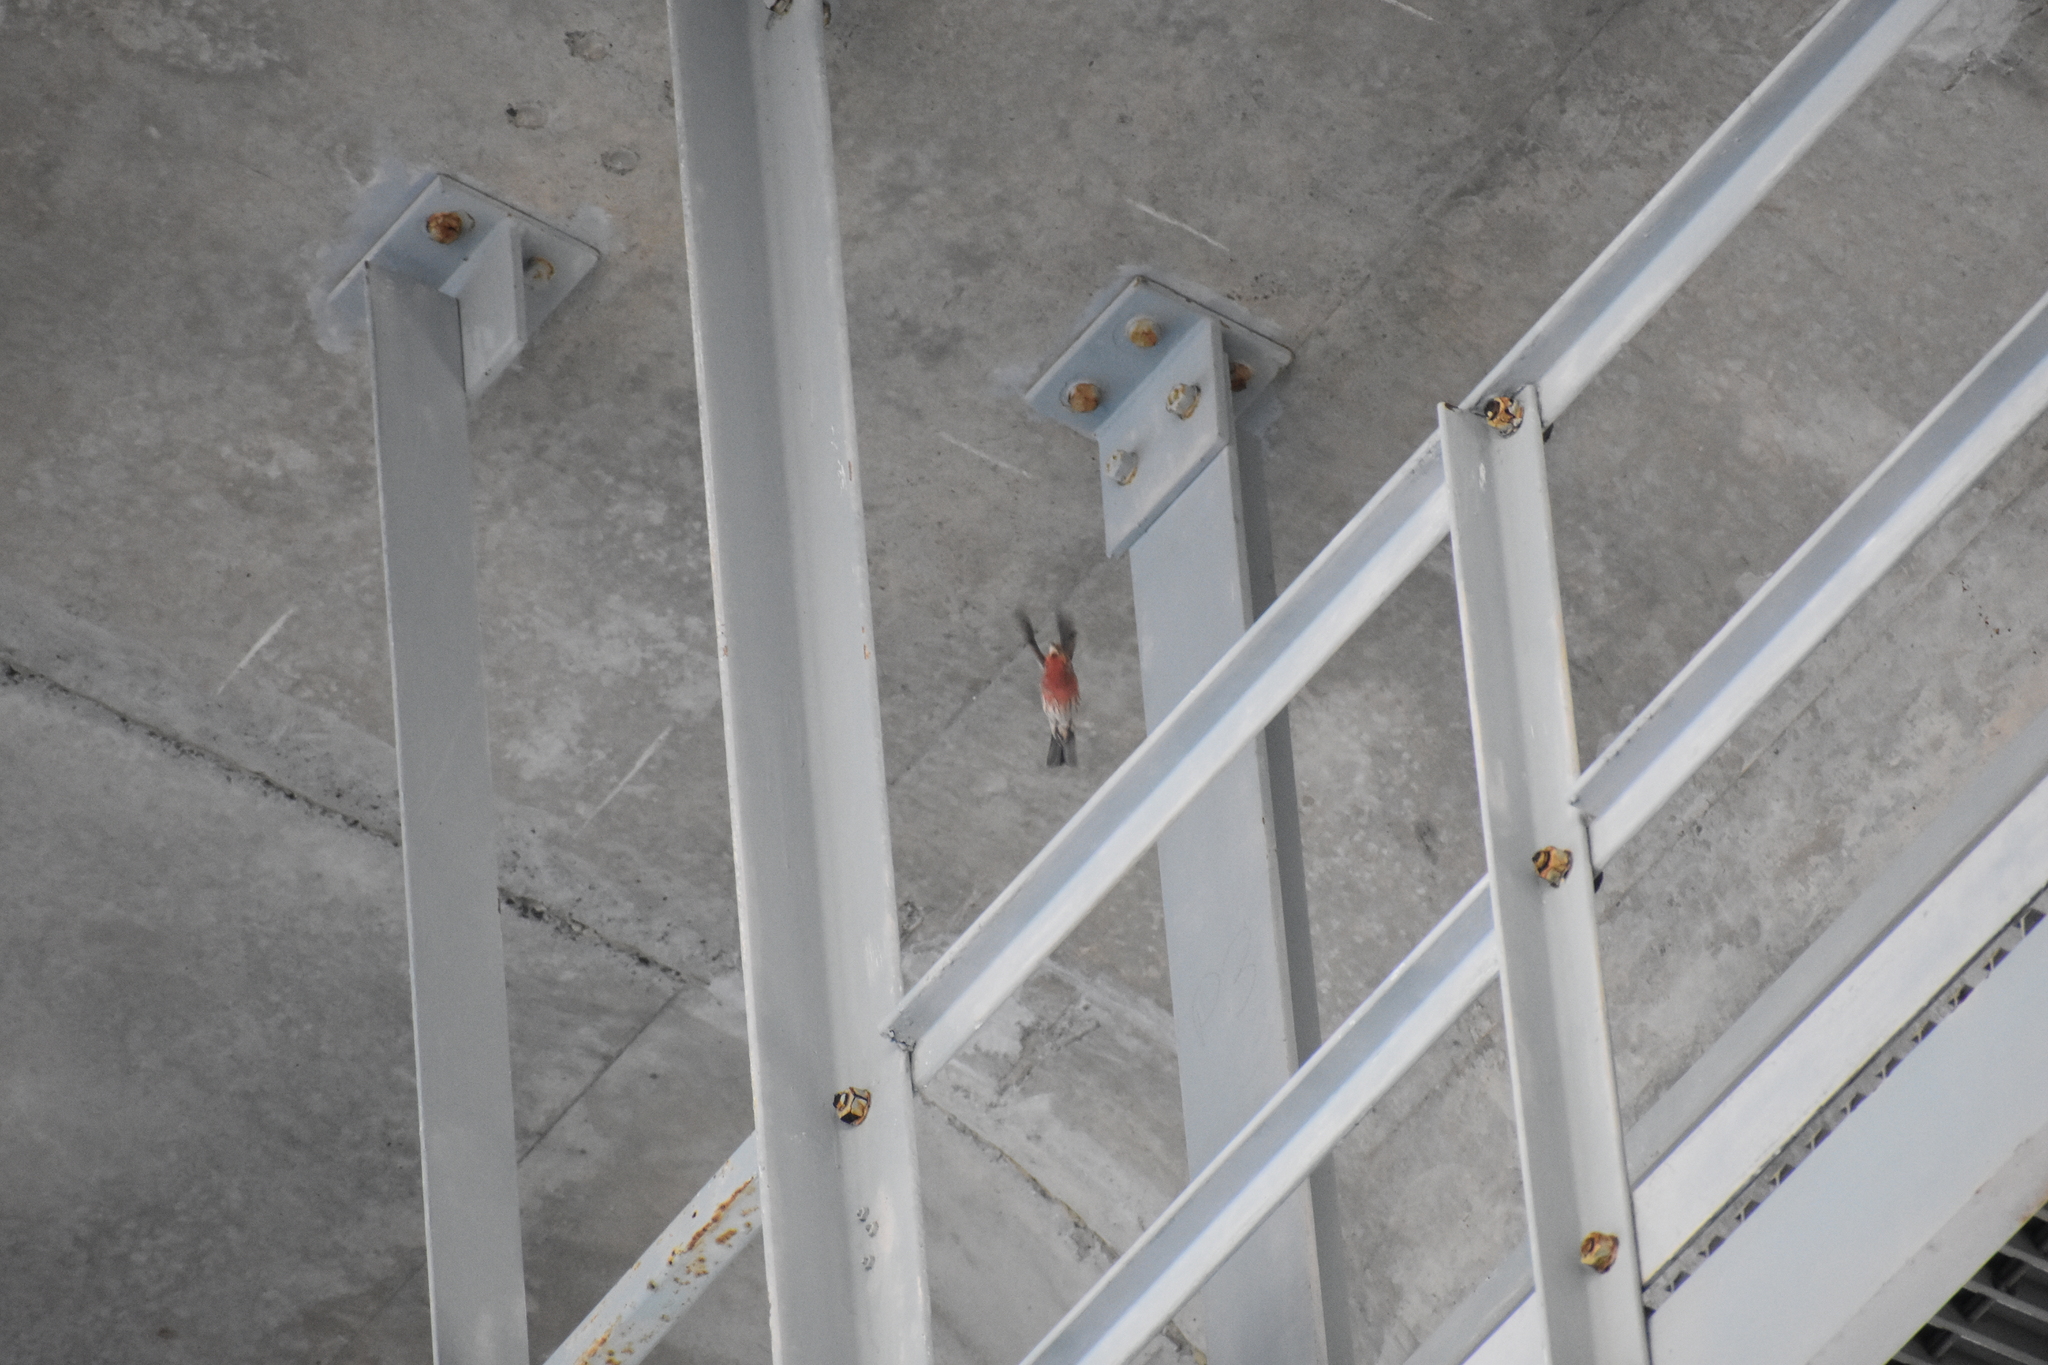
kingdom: Animalia
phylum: Chordata
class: Aves
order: Passeriformes
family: Fringillidae
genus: Haemorhous
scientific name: Haemorhous mexicanus
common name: House finch
